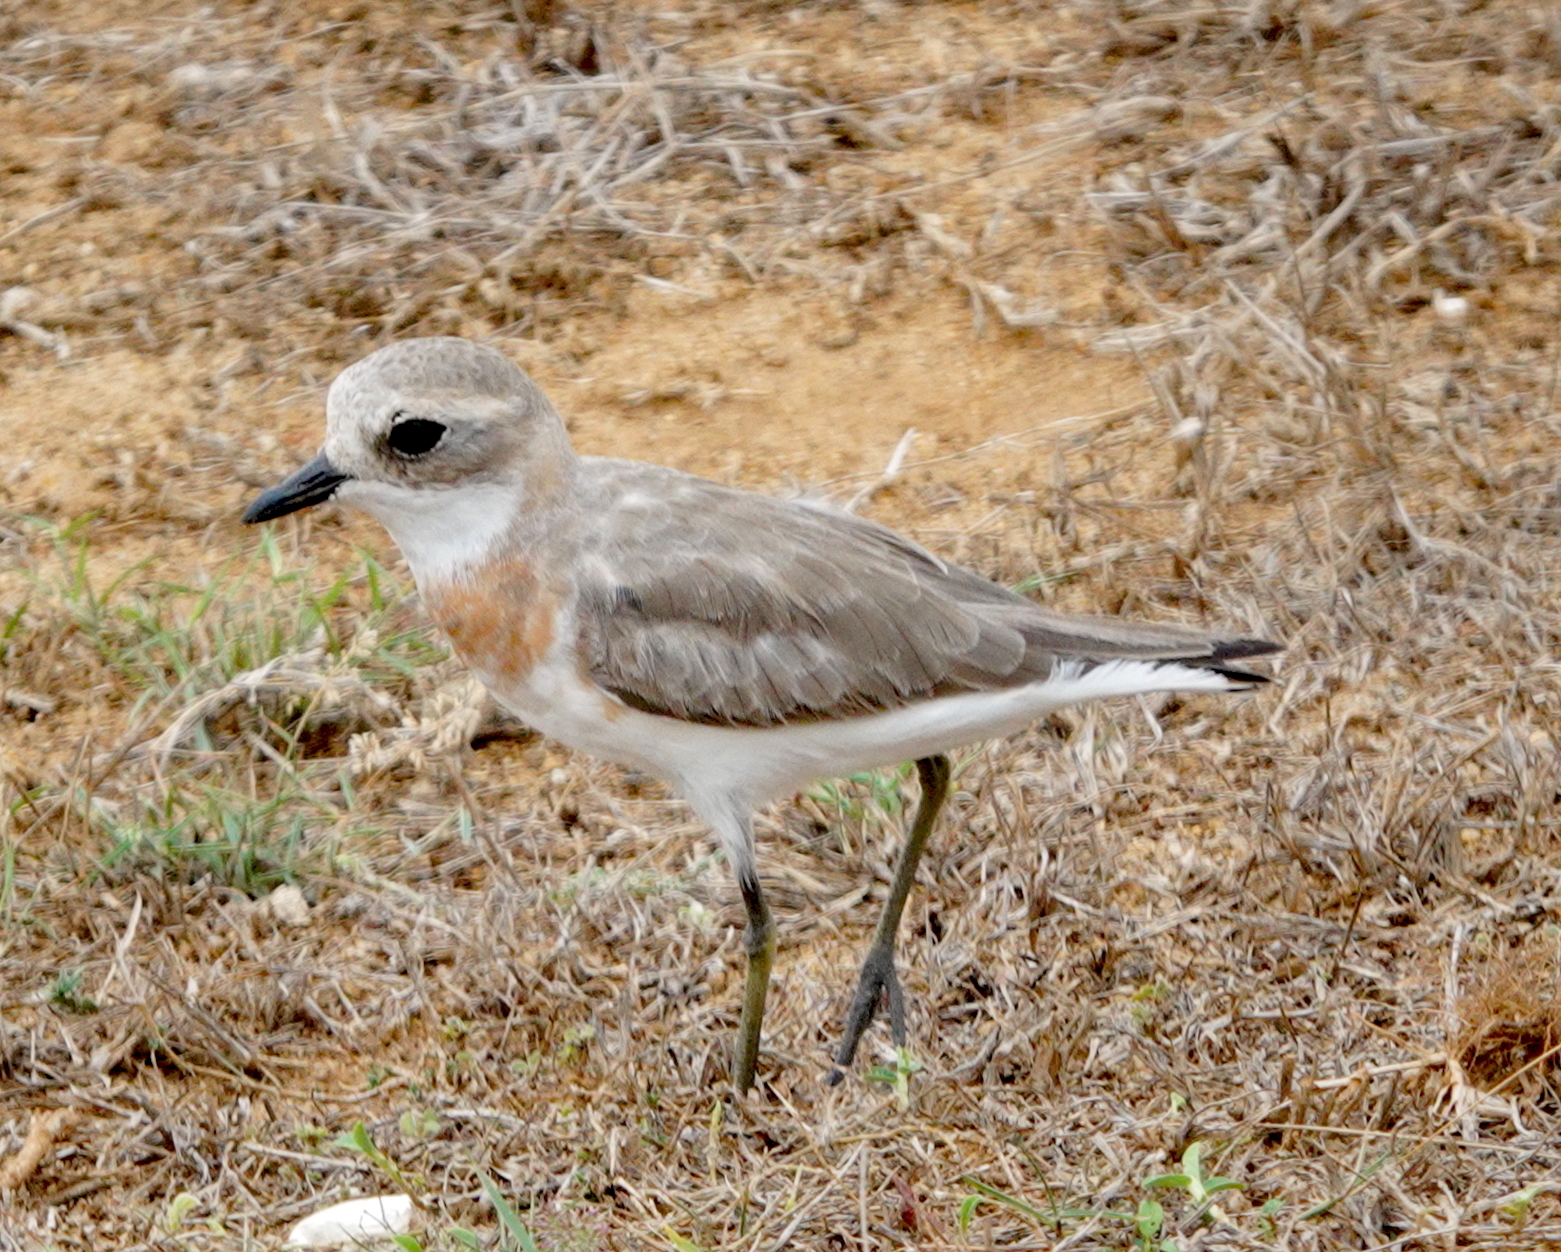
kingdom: Animalia
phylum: Chordata
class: Aves
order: Charadriiformes
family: Charadriidae
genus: Anarhynchus
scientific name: Anarhynchus
